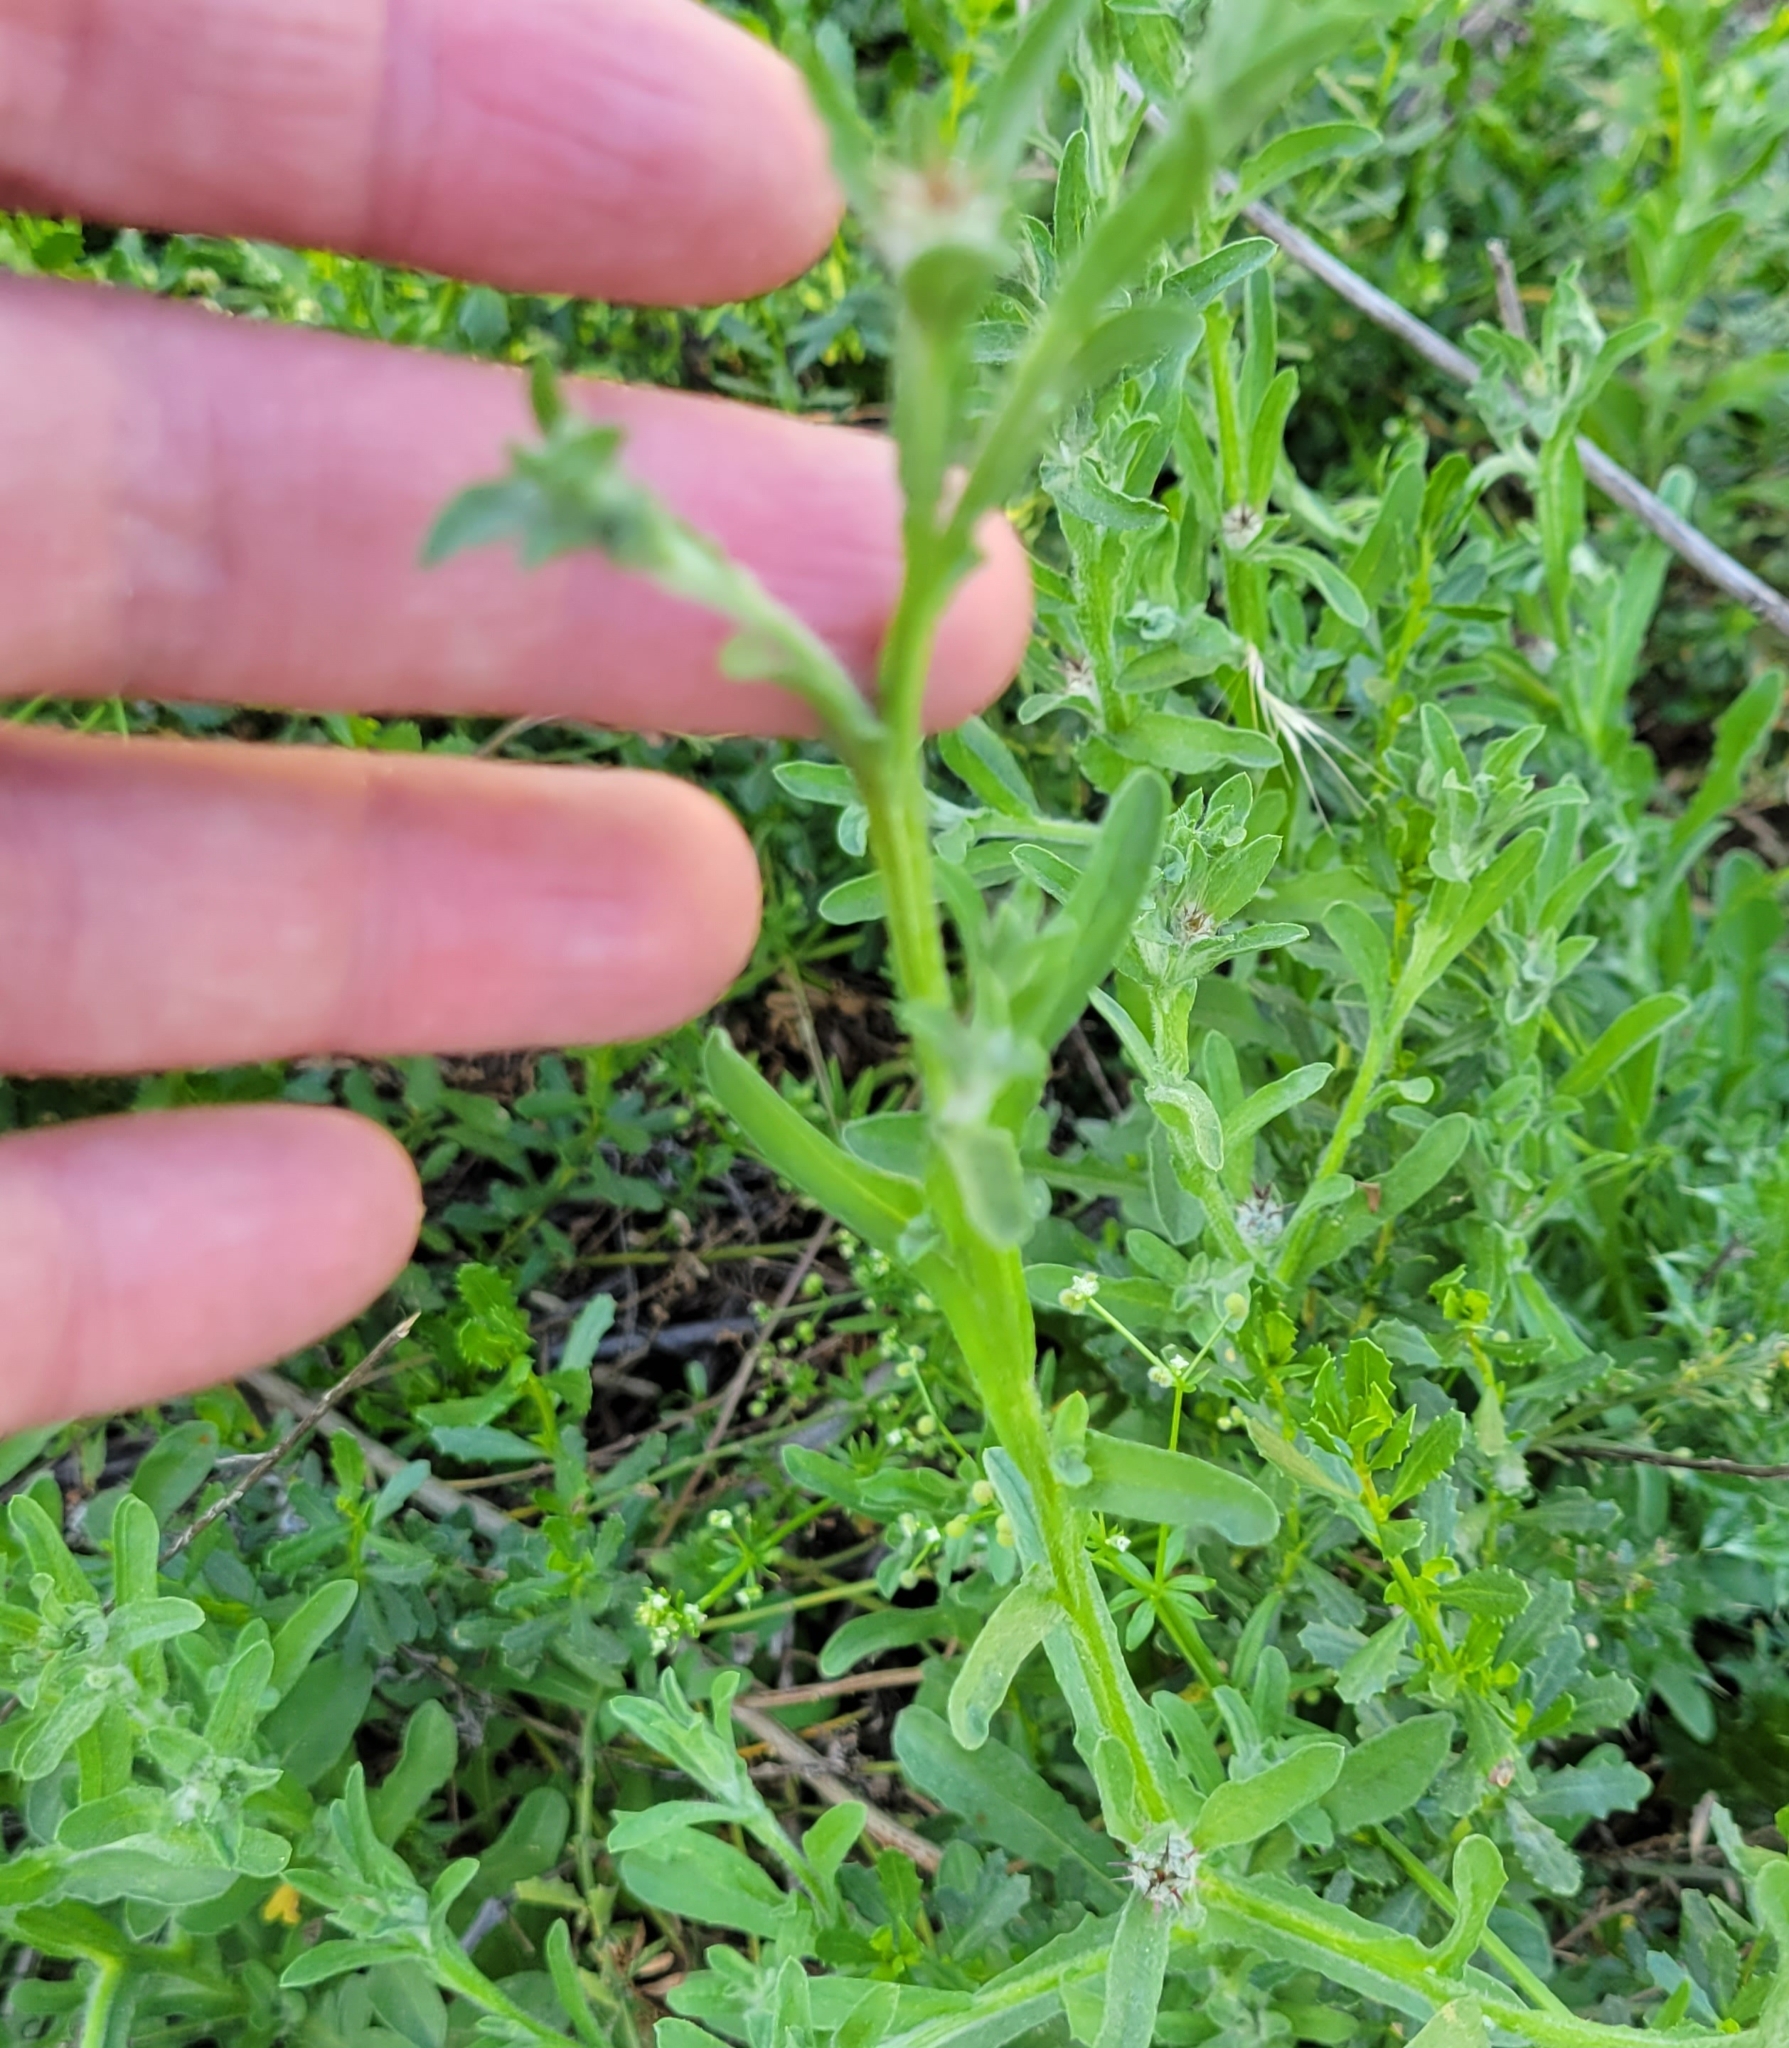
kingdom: Plantae
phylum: Tracheophyta
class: Magnoliopsida
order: Asterales
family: Asteraceae
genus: Centaurea
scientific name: Centaurea melitensis
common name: Maltese star-thistle
